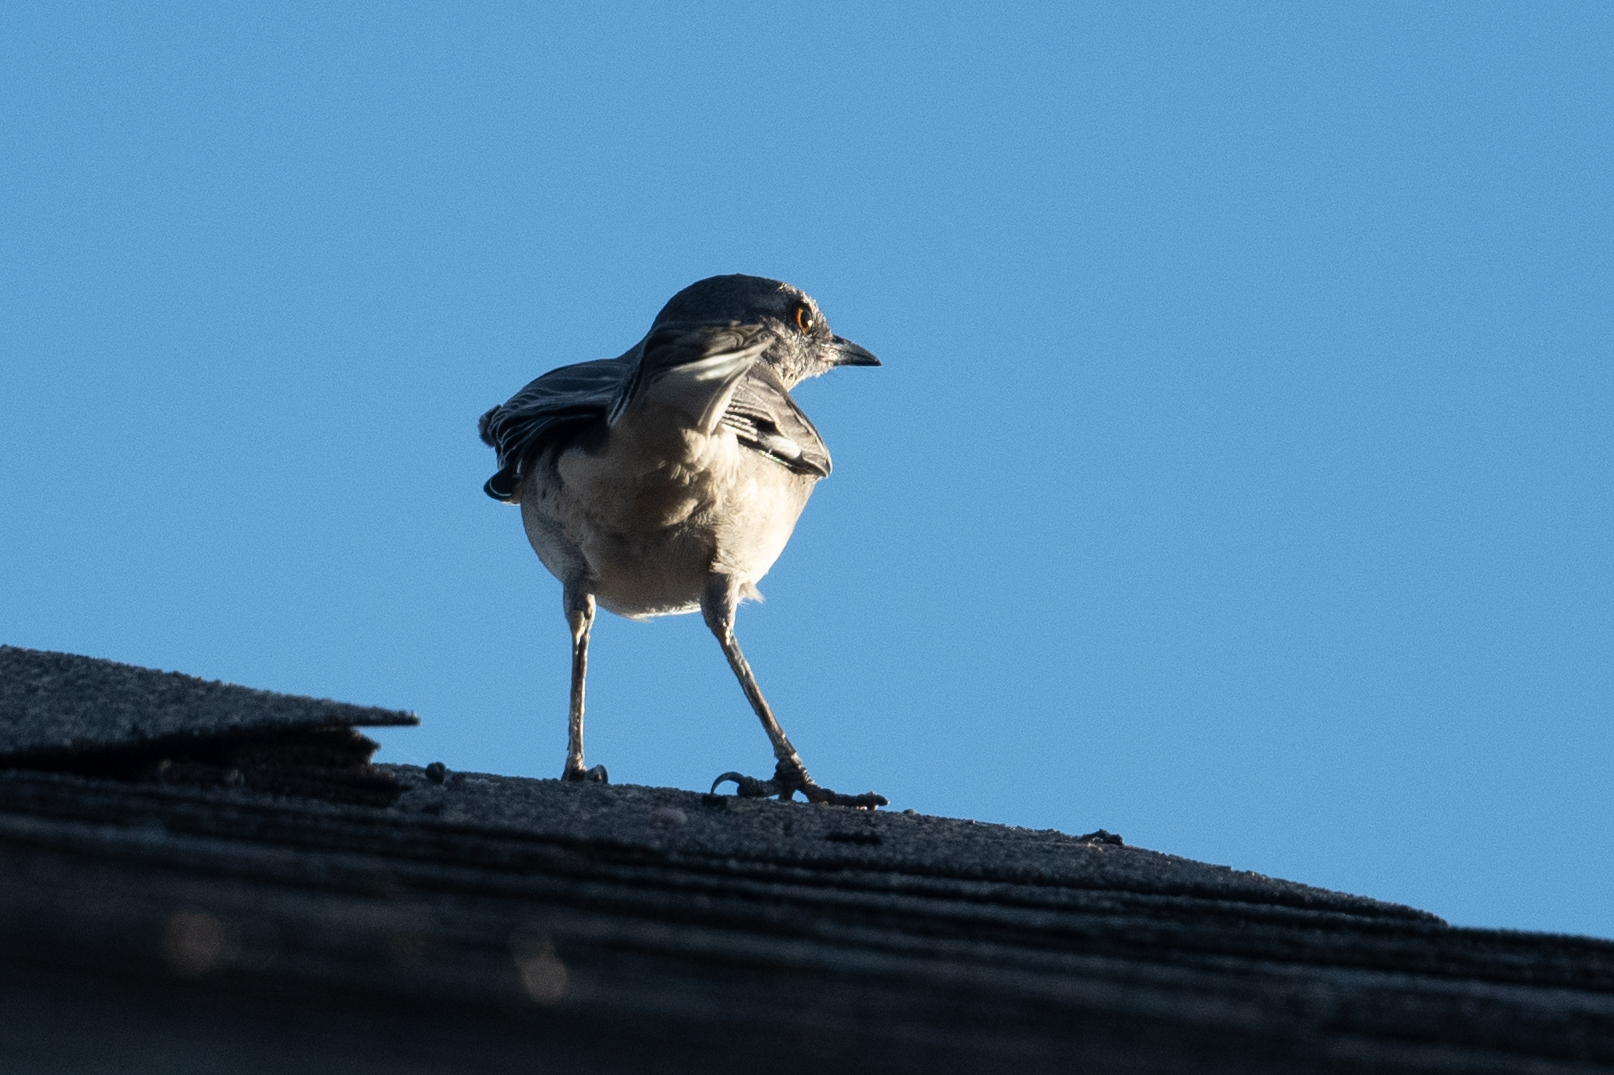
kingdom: Animalia
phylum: Chordata
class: Aves
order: Passeriformes
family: Mimidae
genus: Mimus
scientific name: Mimus polyglottos
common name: Northern mockingbird
